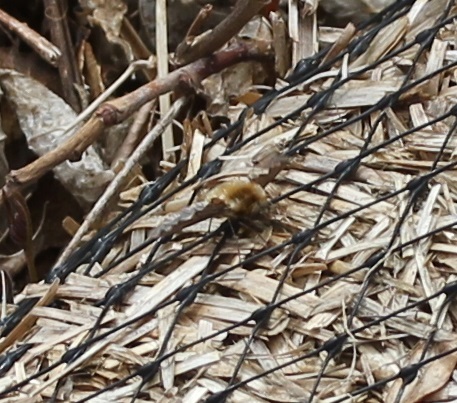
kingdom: Animalia
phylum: Arthropoda
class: Insecta
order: Diptera
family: Bombyliidae
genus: Bombylius
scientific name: Bombylius major
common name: Bee fly
